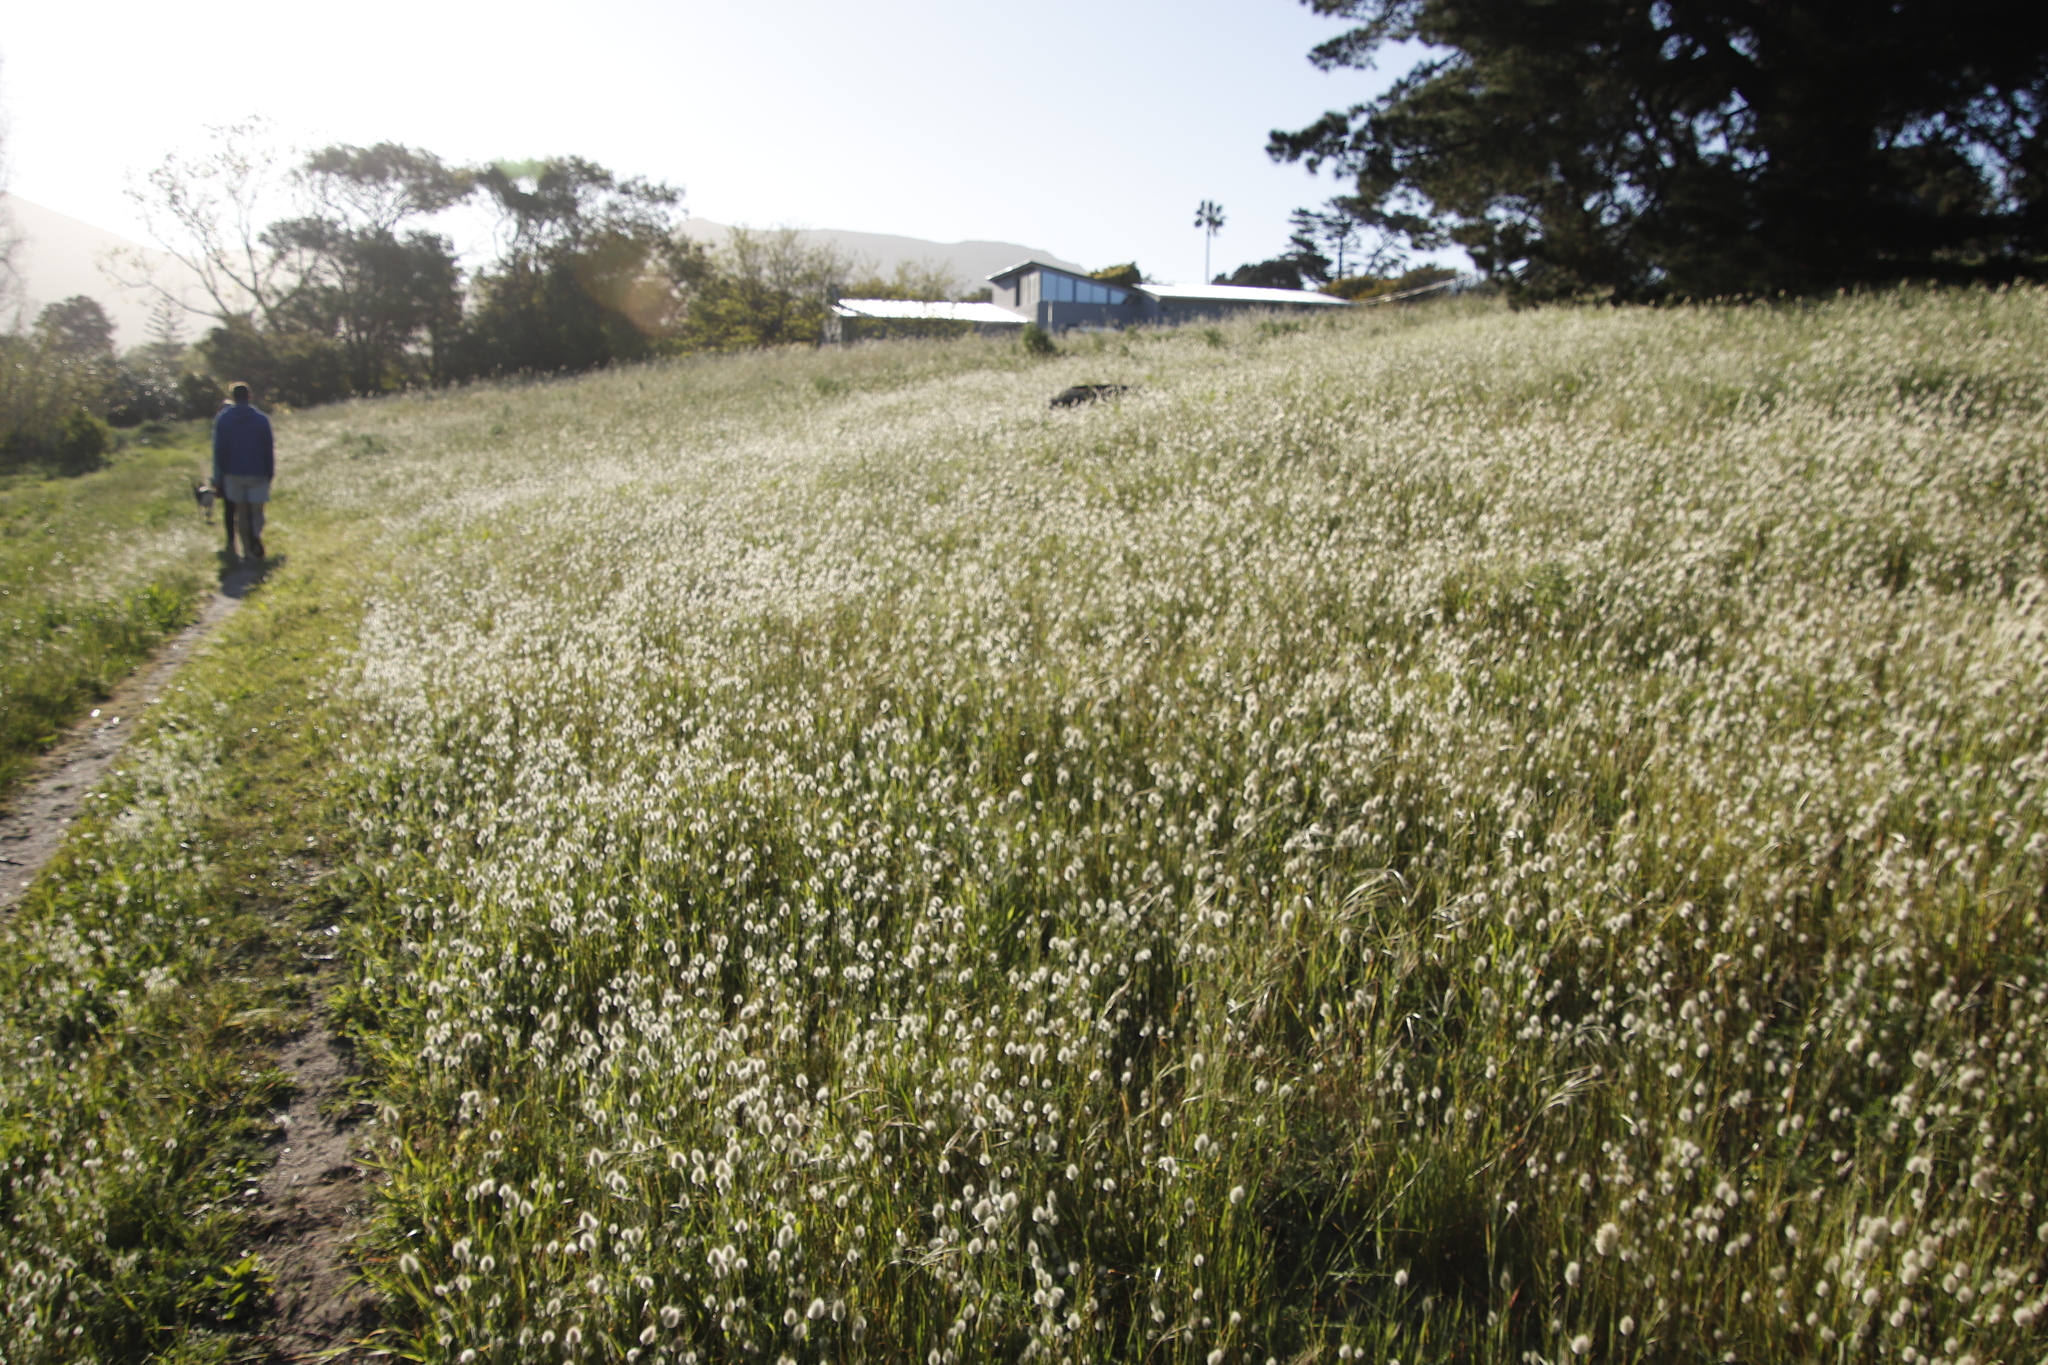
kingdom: Plantae
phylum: Tracheophyta
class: Liliopsida
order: Poales
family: Poaceae
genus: Lagurus
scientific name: Lagurus ovatus
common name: Hare's-tail
